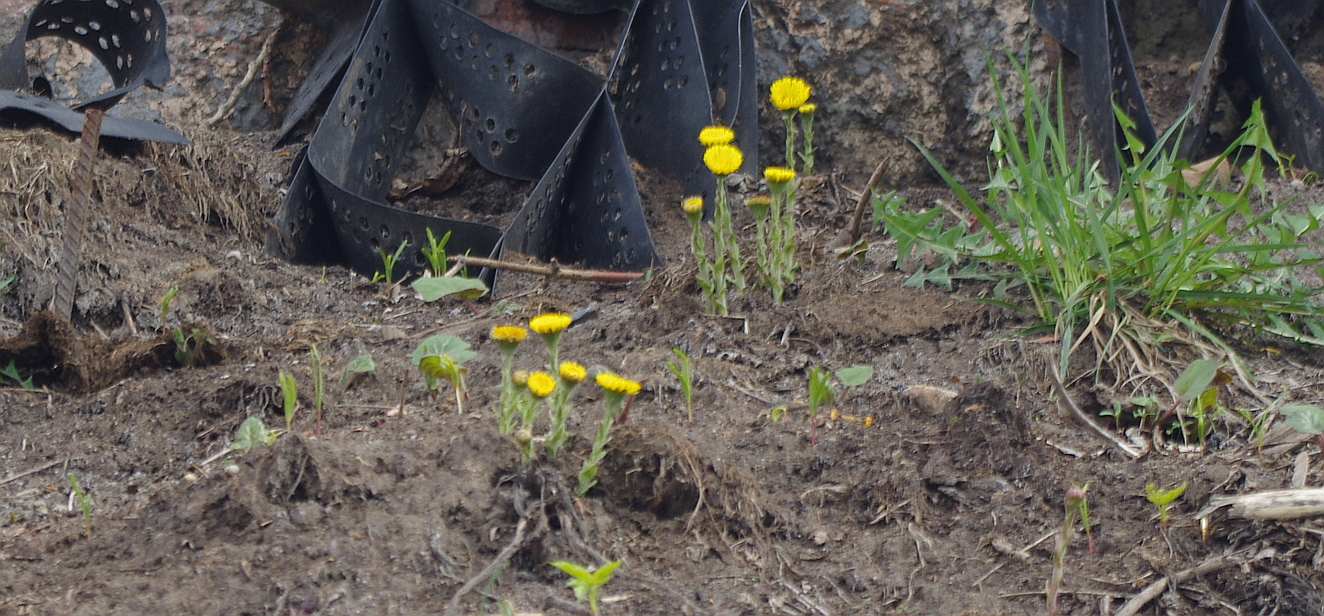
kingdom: Plantae
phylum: Tracheophyta
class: Magnoliopsida
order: Asterales
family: Asteraceae
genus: Tussilago
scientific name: Tussilago farfara
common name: Coltsfoot
